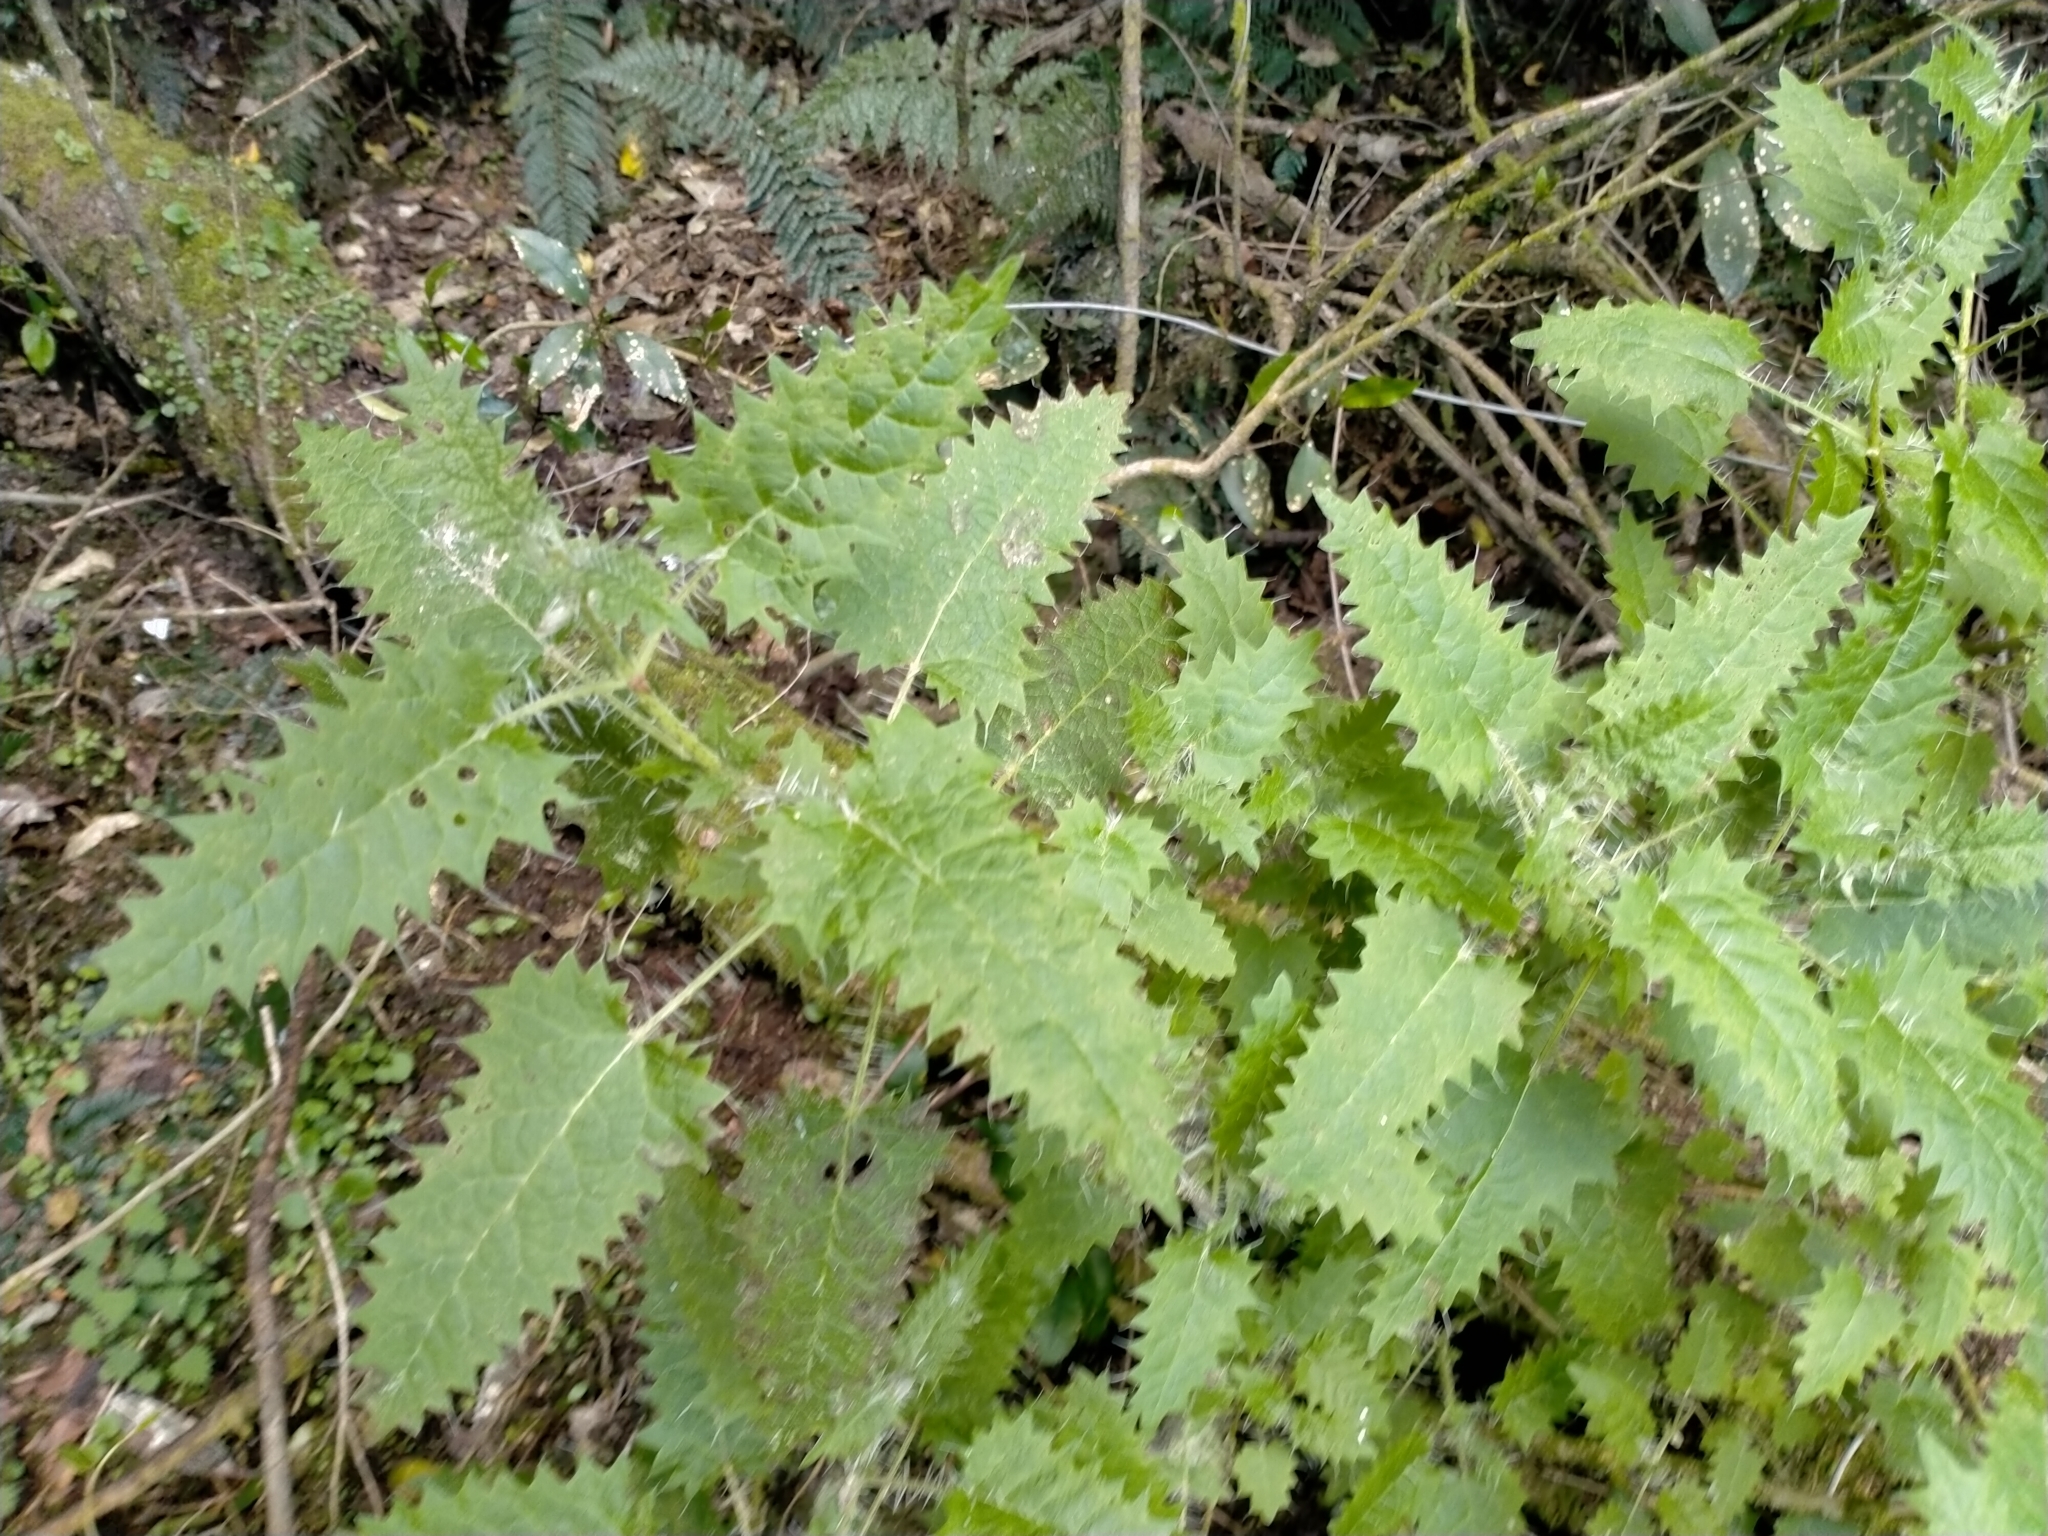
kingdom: Plantae
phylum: Tracheophyta
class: Magnoliopsida
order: Rosales
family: Urticaceae
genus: Urtica
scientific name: Urtica ferox
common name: Tree nettle
